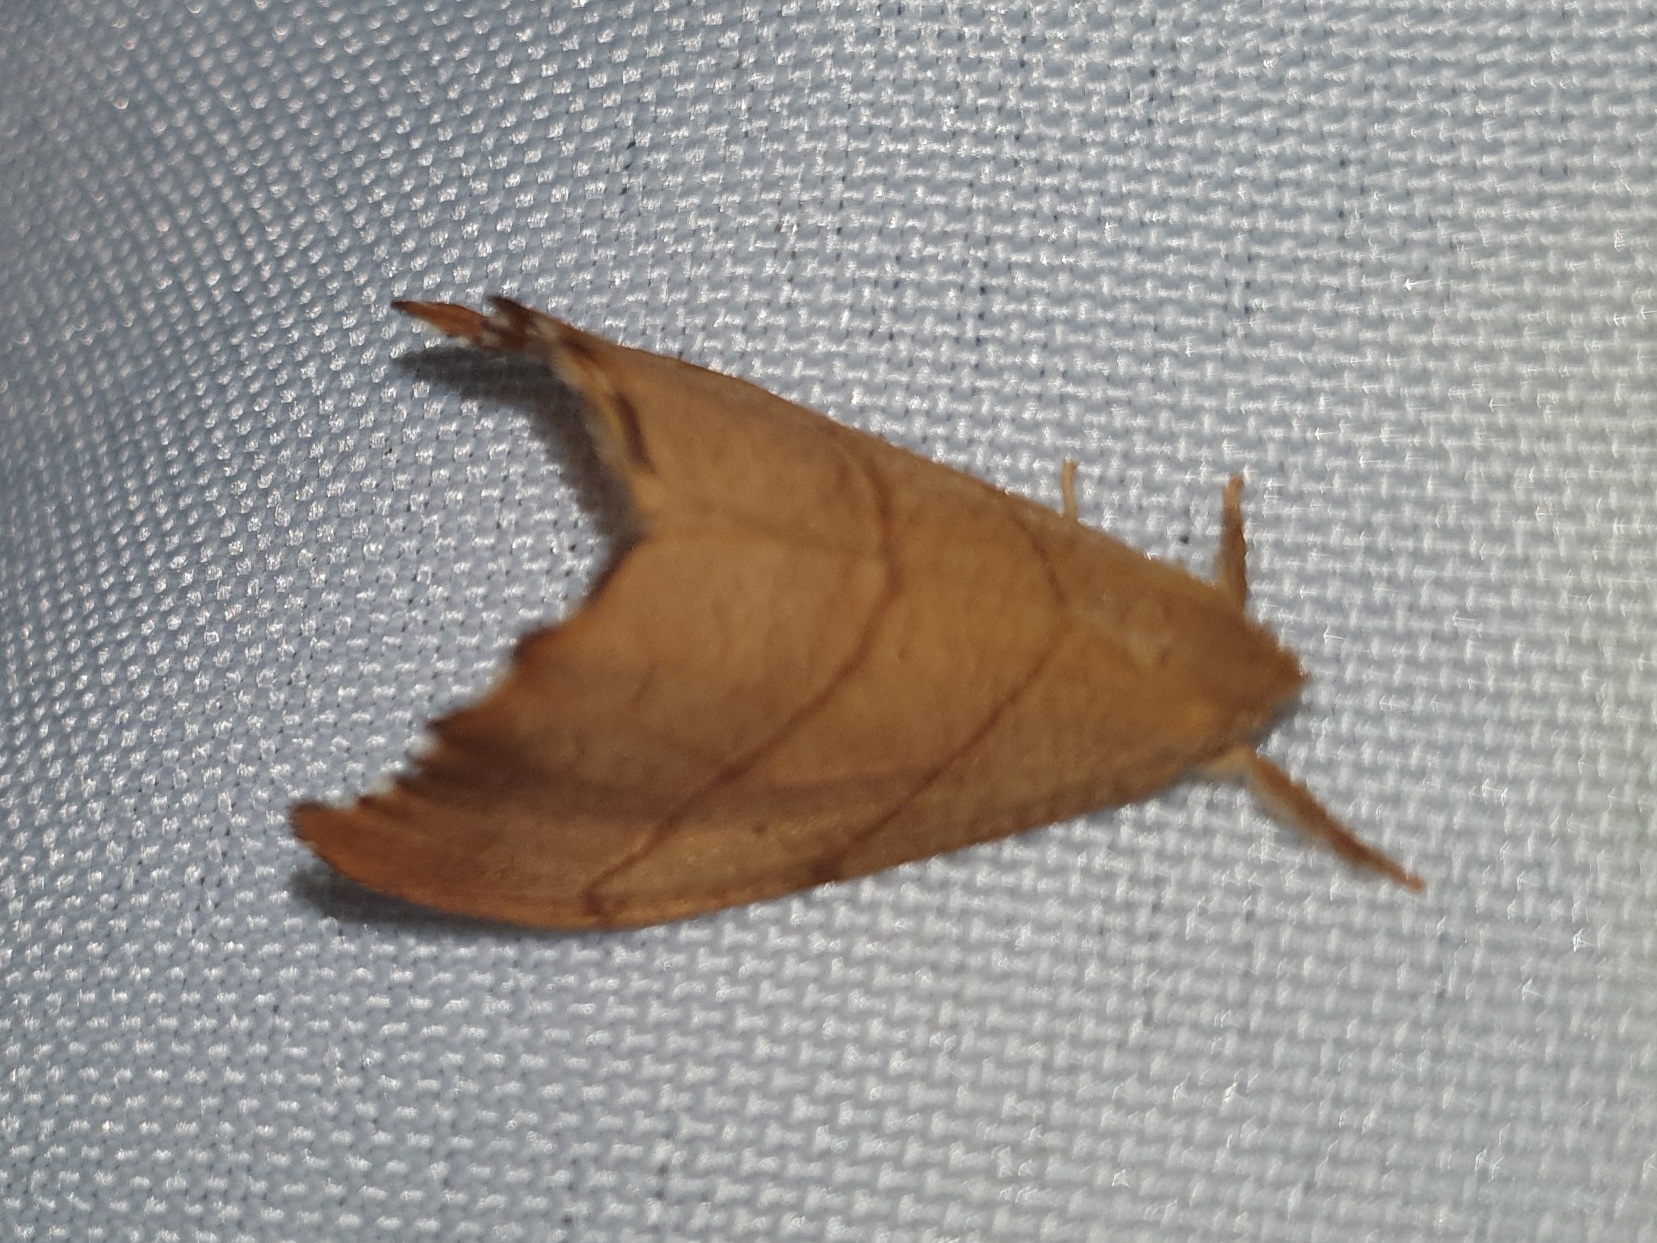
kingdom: Animalia
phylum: Arthropoda
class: Insecta
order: Lepidoptera
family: Drepanidae
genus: Falcaria
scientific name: Falcaria lacertinaria
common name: Scalloped hook-tip
